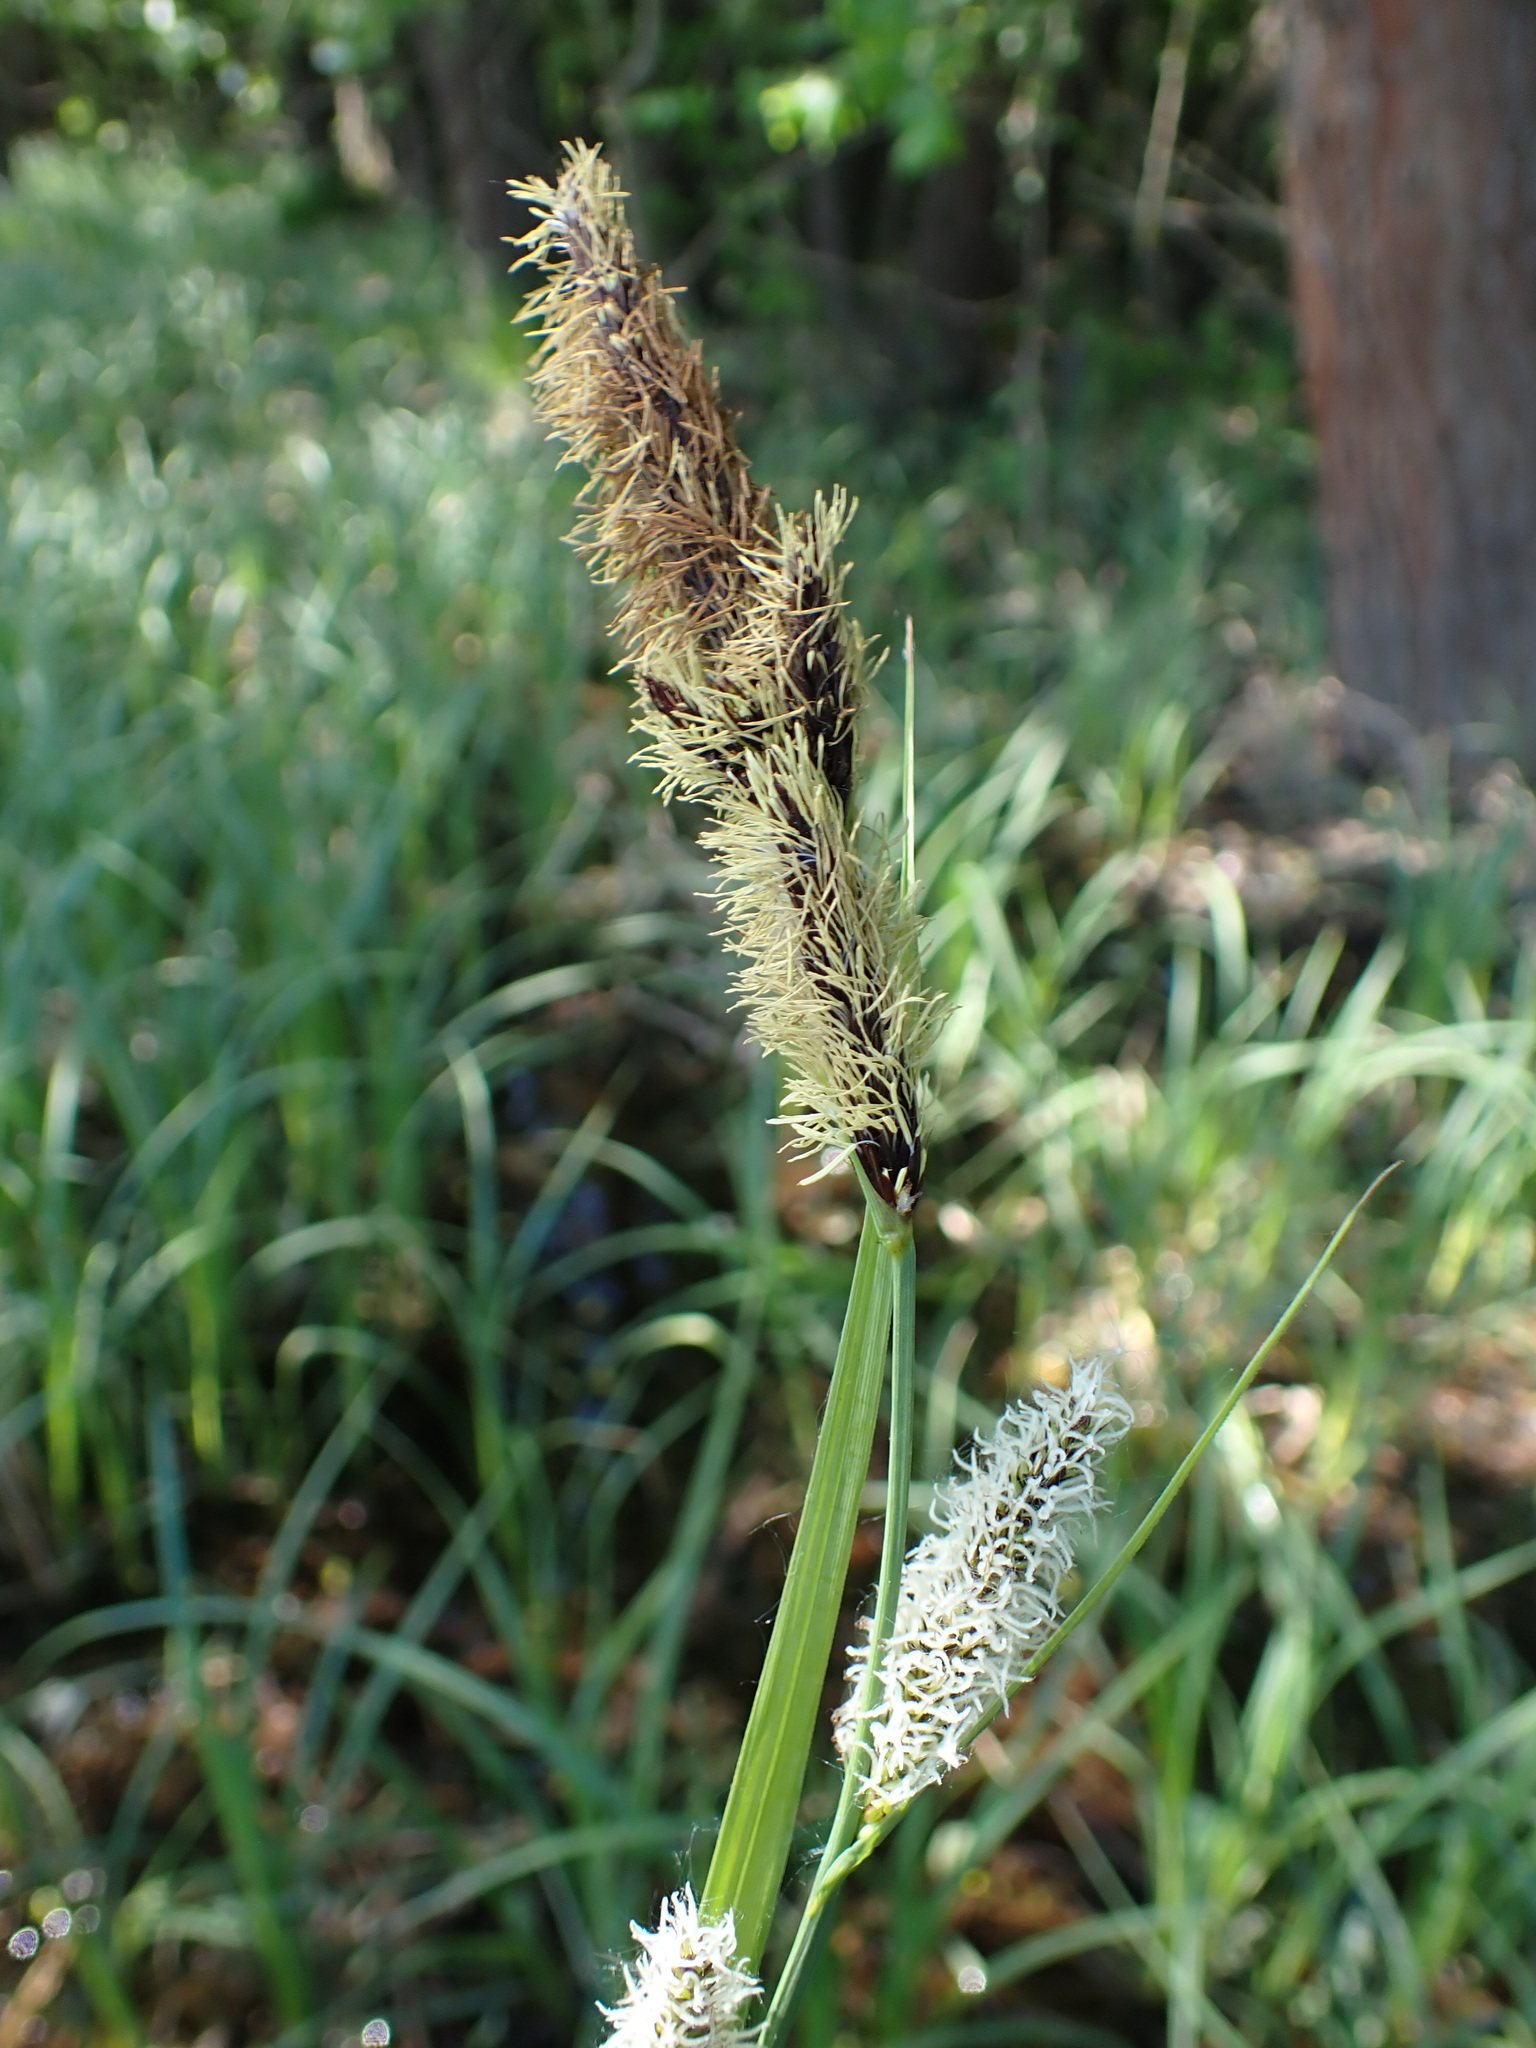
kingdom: Plantae
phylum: Tracheophyta
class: Liliopsida
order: Poales
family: Cyperaceae
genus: Carex
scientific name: Carex riparia
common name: Greater pond-sedge
